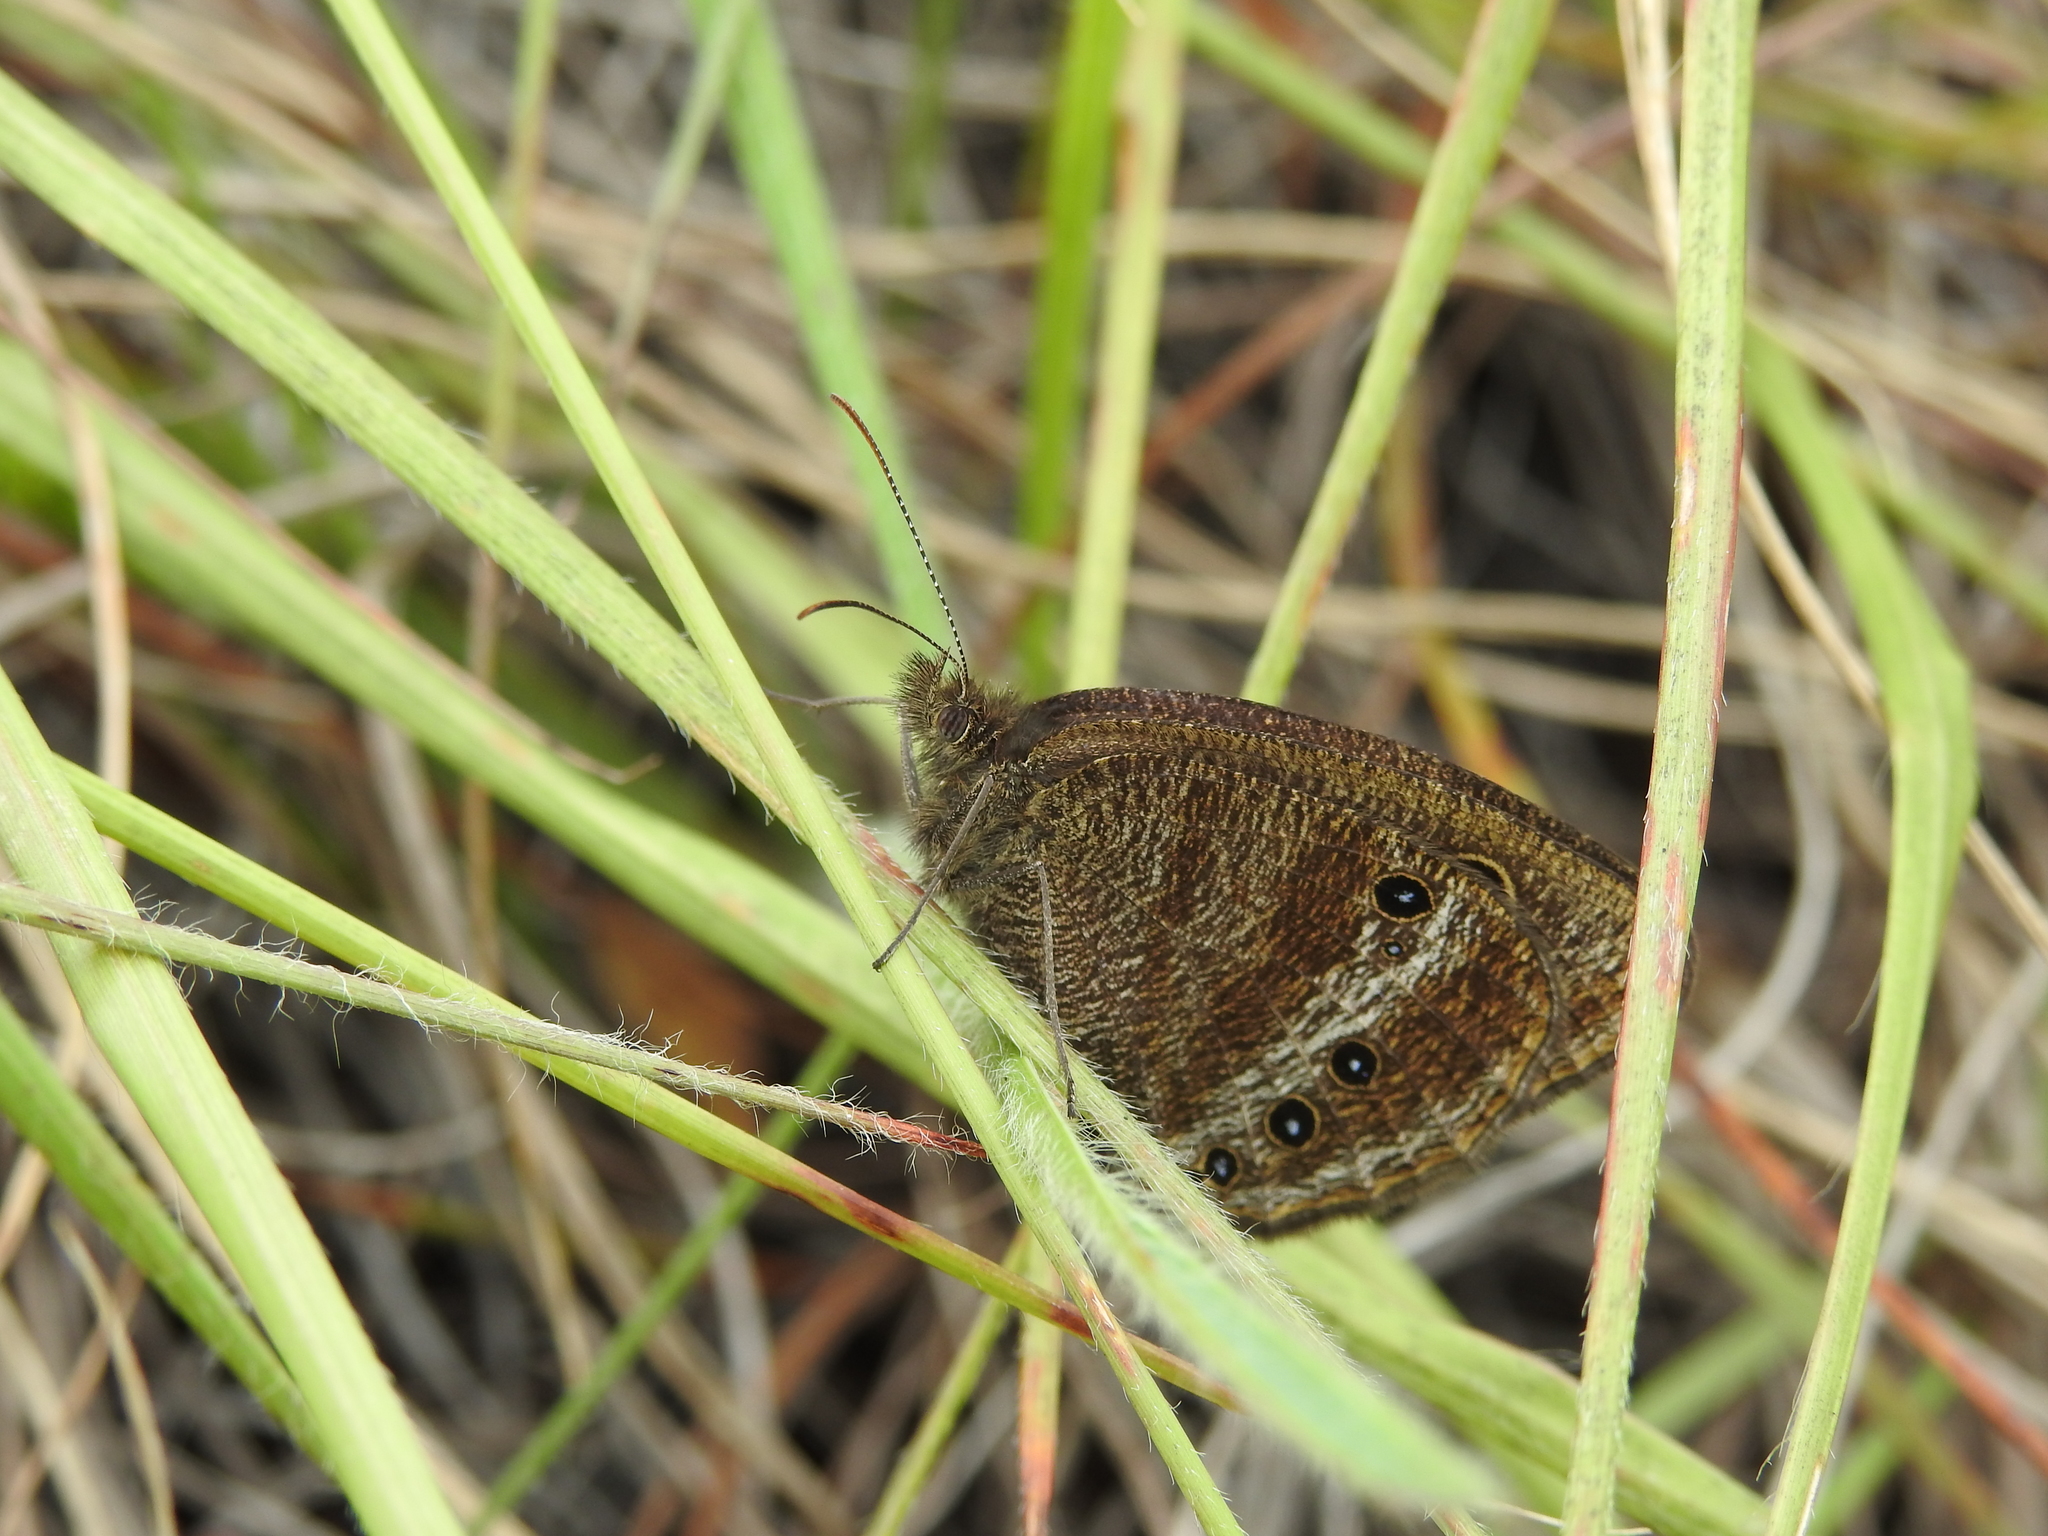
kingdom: Animalia
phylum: Arthropoda
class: Insecta
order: Lepidoptera
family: Nymphalidae
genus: Ypthima
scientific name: Ypthima ypthimoides
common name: Palni four-ring
